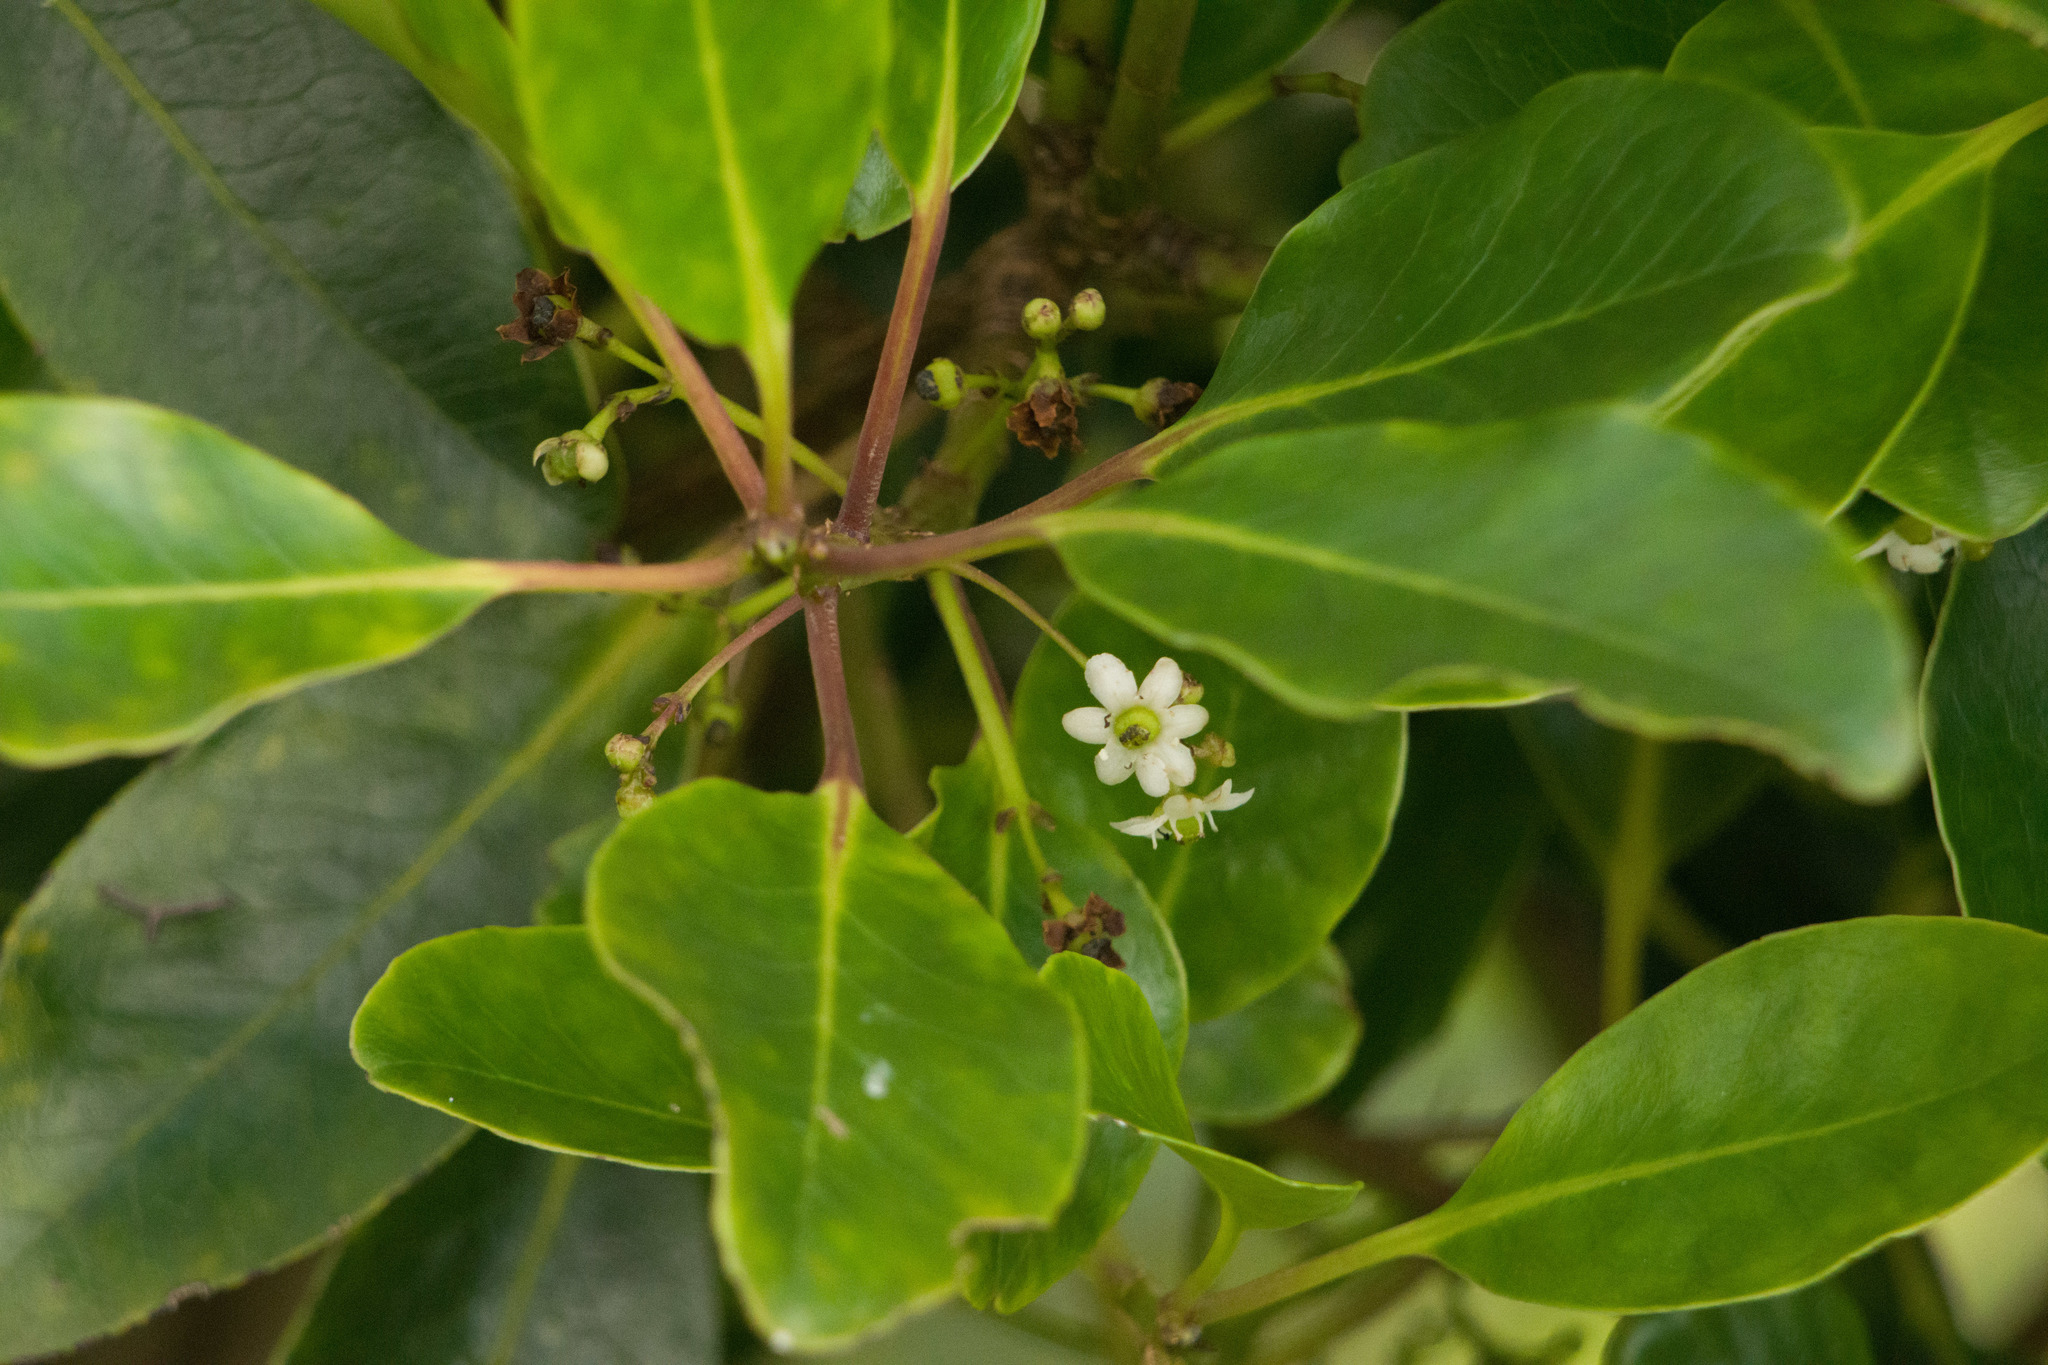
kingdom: Plantae
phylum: Tracheophyta
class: Magnoliopsida
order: Aquifoliales
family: Aquifoliaceae
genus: Ilex
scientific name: Ilex anomala
